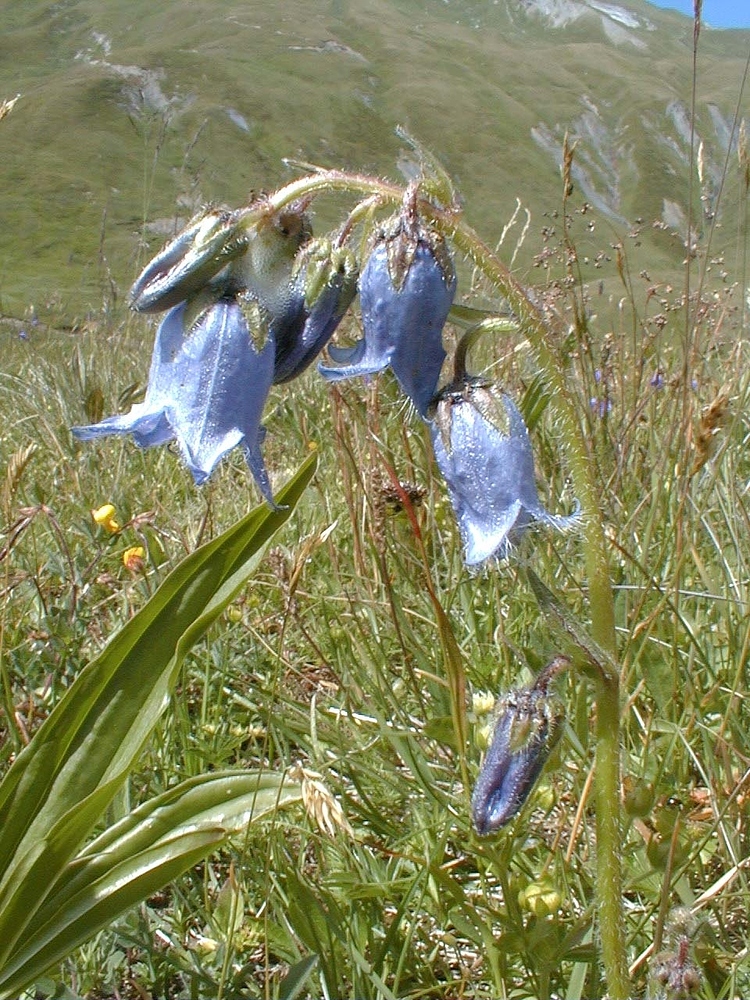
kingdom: Plantae
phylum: Tracheophyta
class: Magnoliopsida
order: Asterales
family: Campanulaceae
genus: Campanula
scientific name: Campanula barbata
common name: Bearded bellflower
